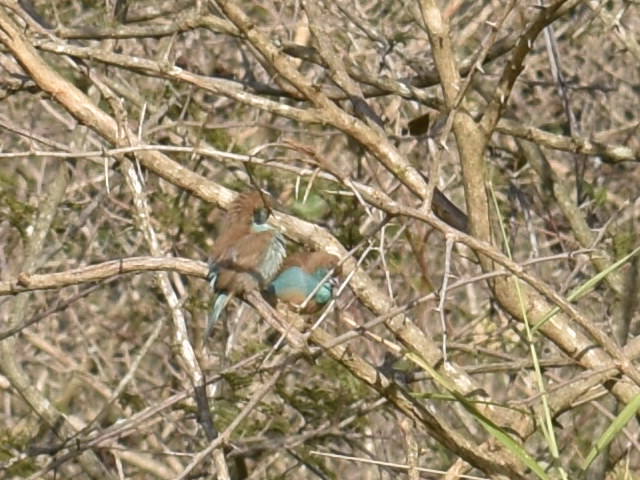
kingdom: Animalia
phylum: Chordata
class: Aves
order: Passeriformes
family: Estrildidae
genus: Uraeginthus
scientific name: Uraeginthus angolensis
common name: Blue waxbill
